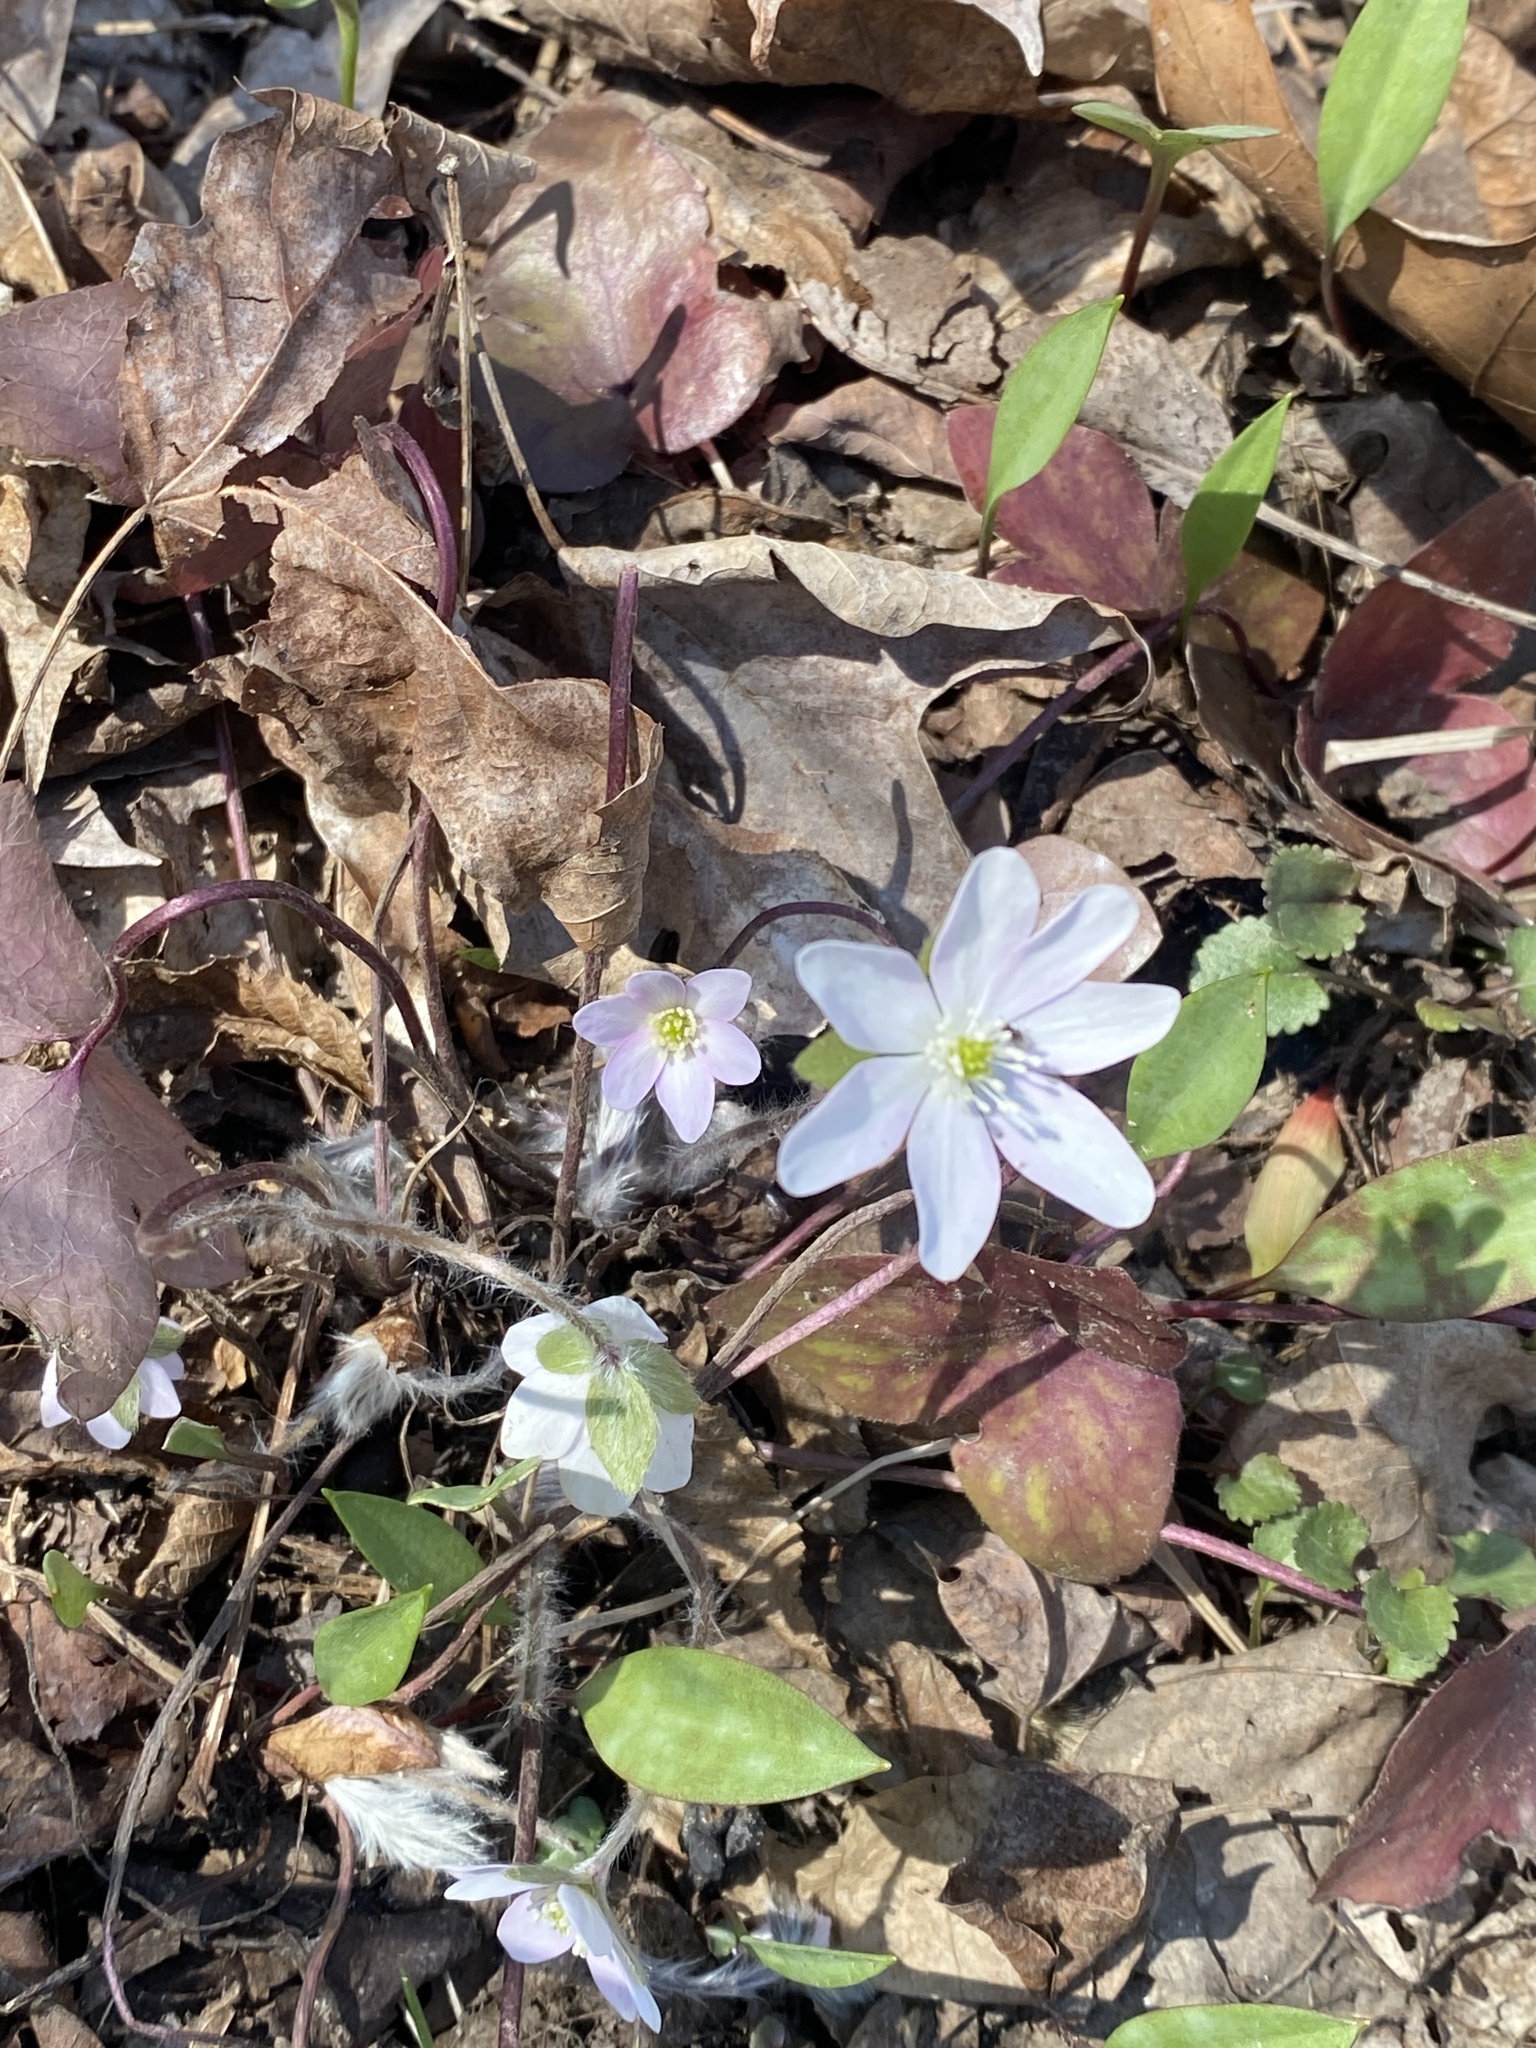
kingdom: Plantae
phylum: Tracheophyta
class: Magnoliopsida
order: Ranunculales
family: Ranunculaceae
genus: Hepatica
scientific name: Hepatica acutiloba
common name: Sharp-lobed hepatica
